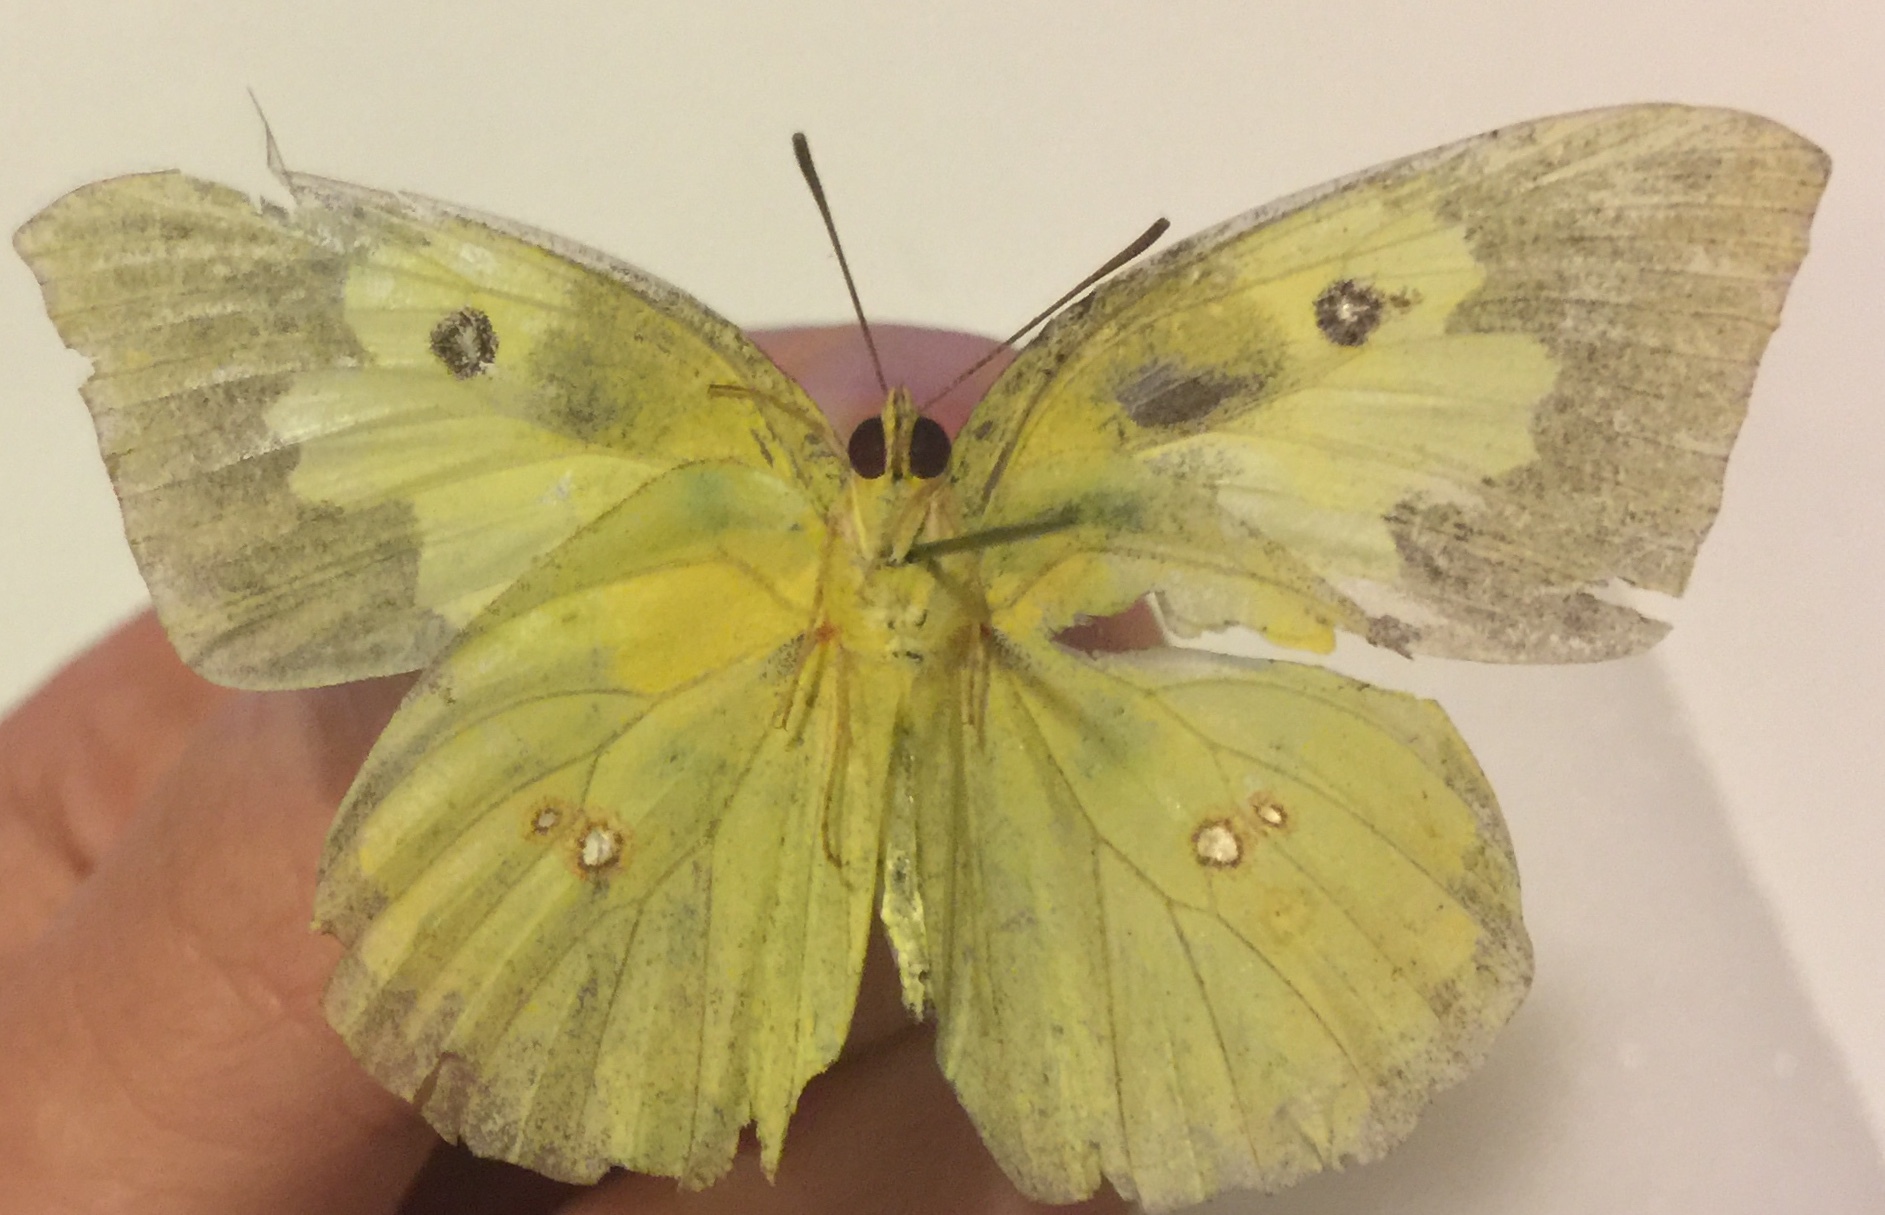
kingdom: Animalia
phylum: Arthropoda
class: Insecta
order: Lepidoptera
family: Pieridae
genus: Zerene
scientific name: Zerene cesonia
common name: Southern dogface
